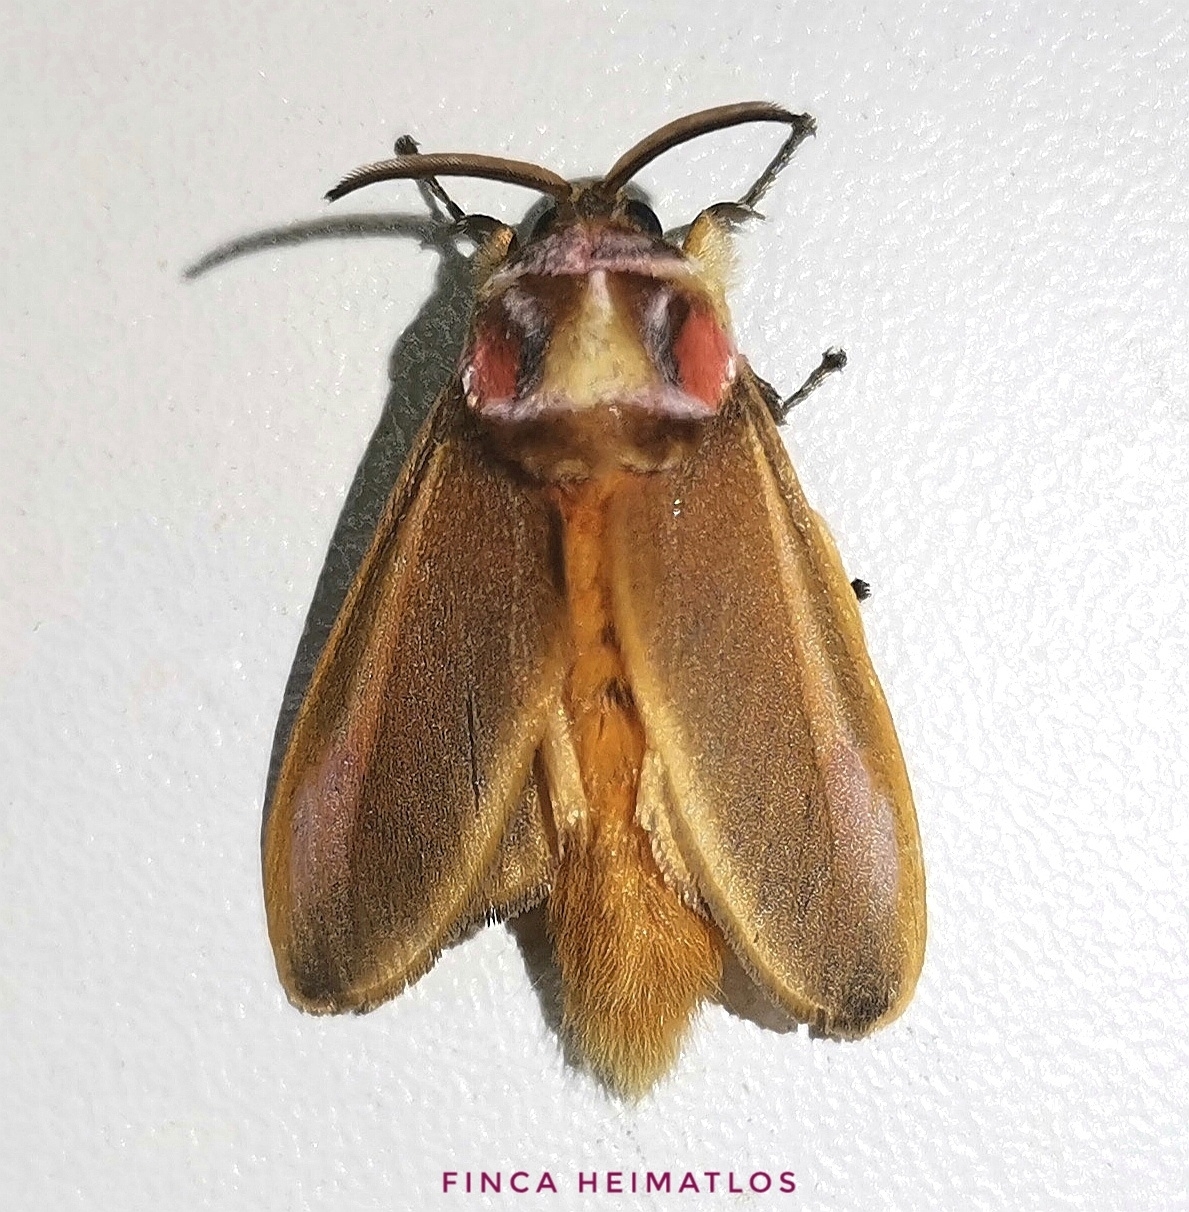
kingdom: Animalia
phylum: Arthropoda
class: Insecta
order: Lepidoptera
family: Megalopygidae
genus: Endobrachys
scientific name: Endobrachys revocans
